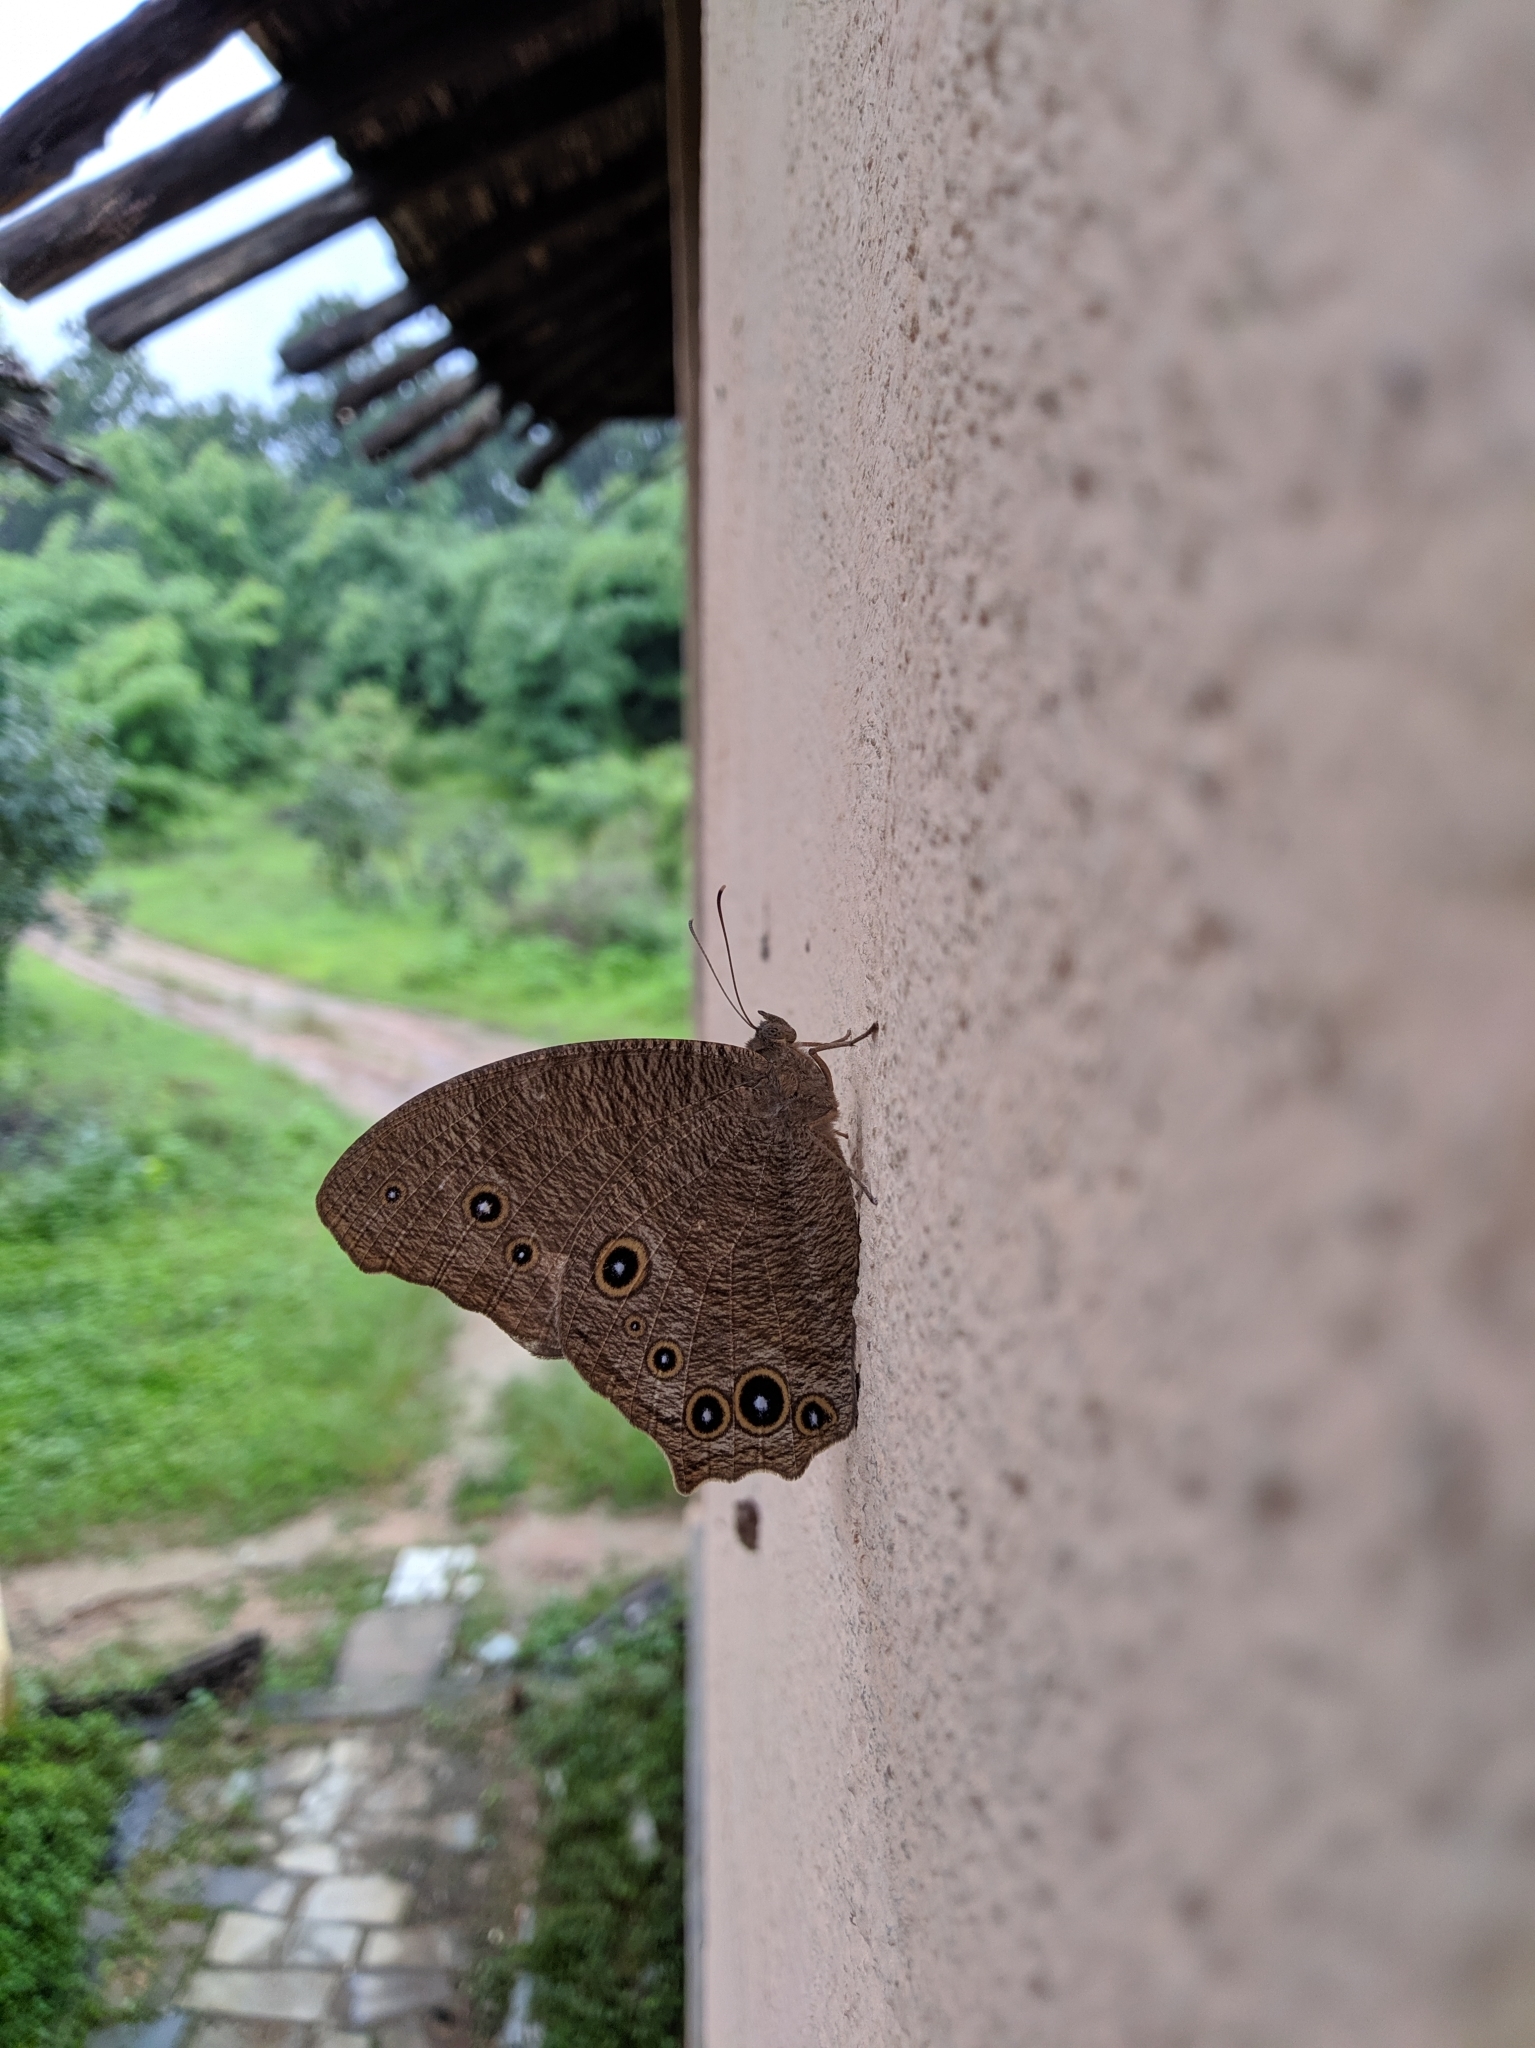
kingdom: Animalia
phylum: Arthropoda
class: Insecta
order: Lepidoptera
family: Nymphalidae
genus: Melanitis
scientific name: Melanitis leda
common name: Twilight brown
